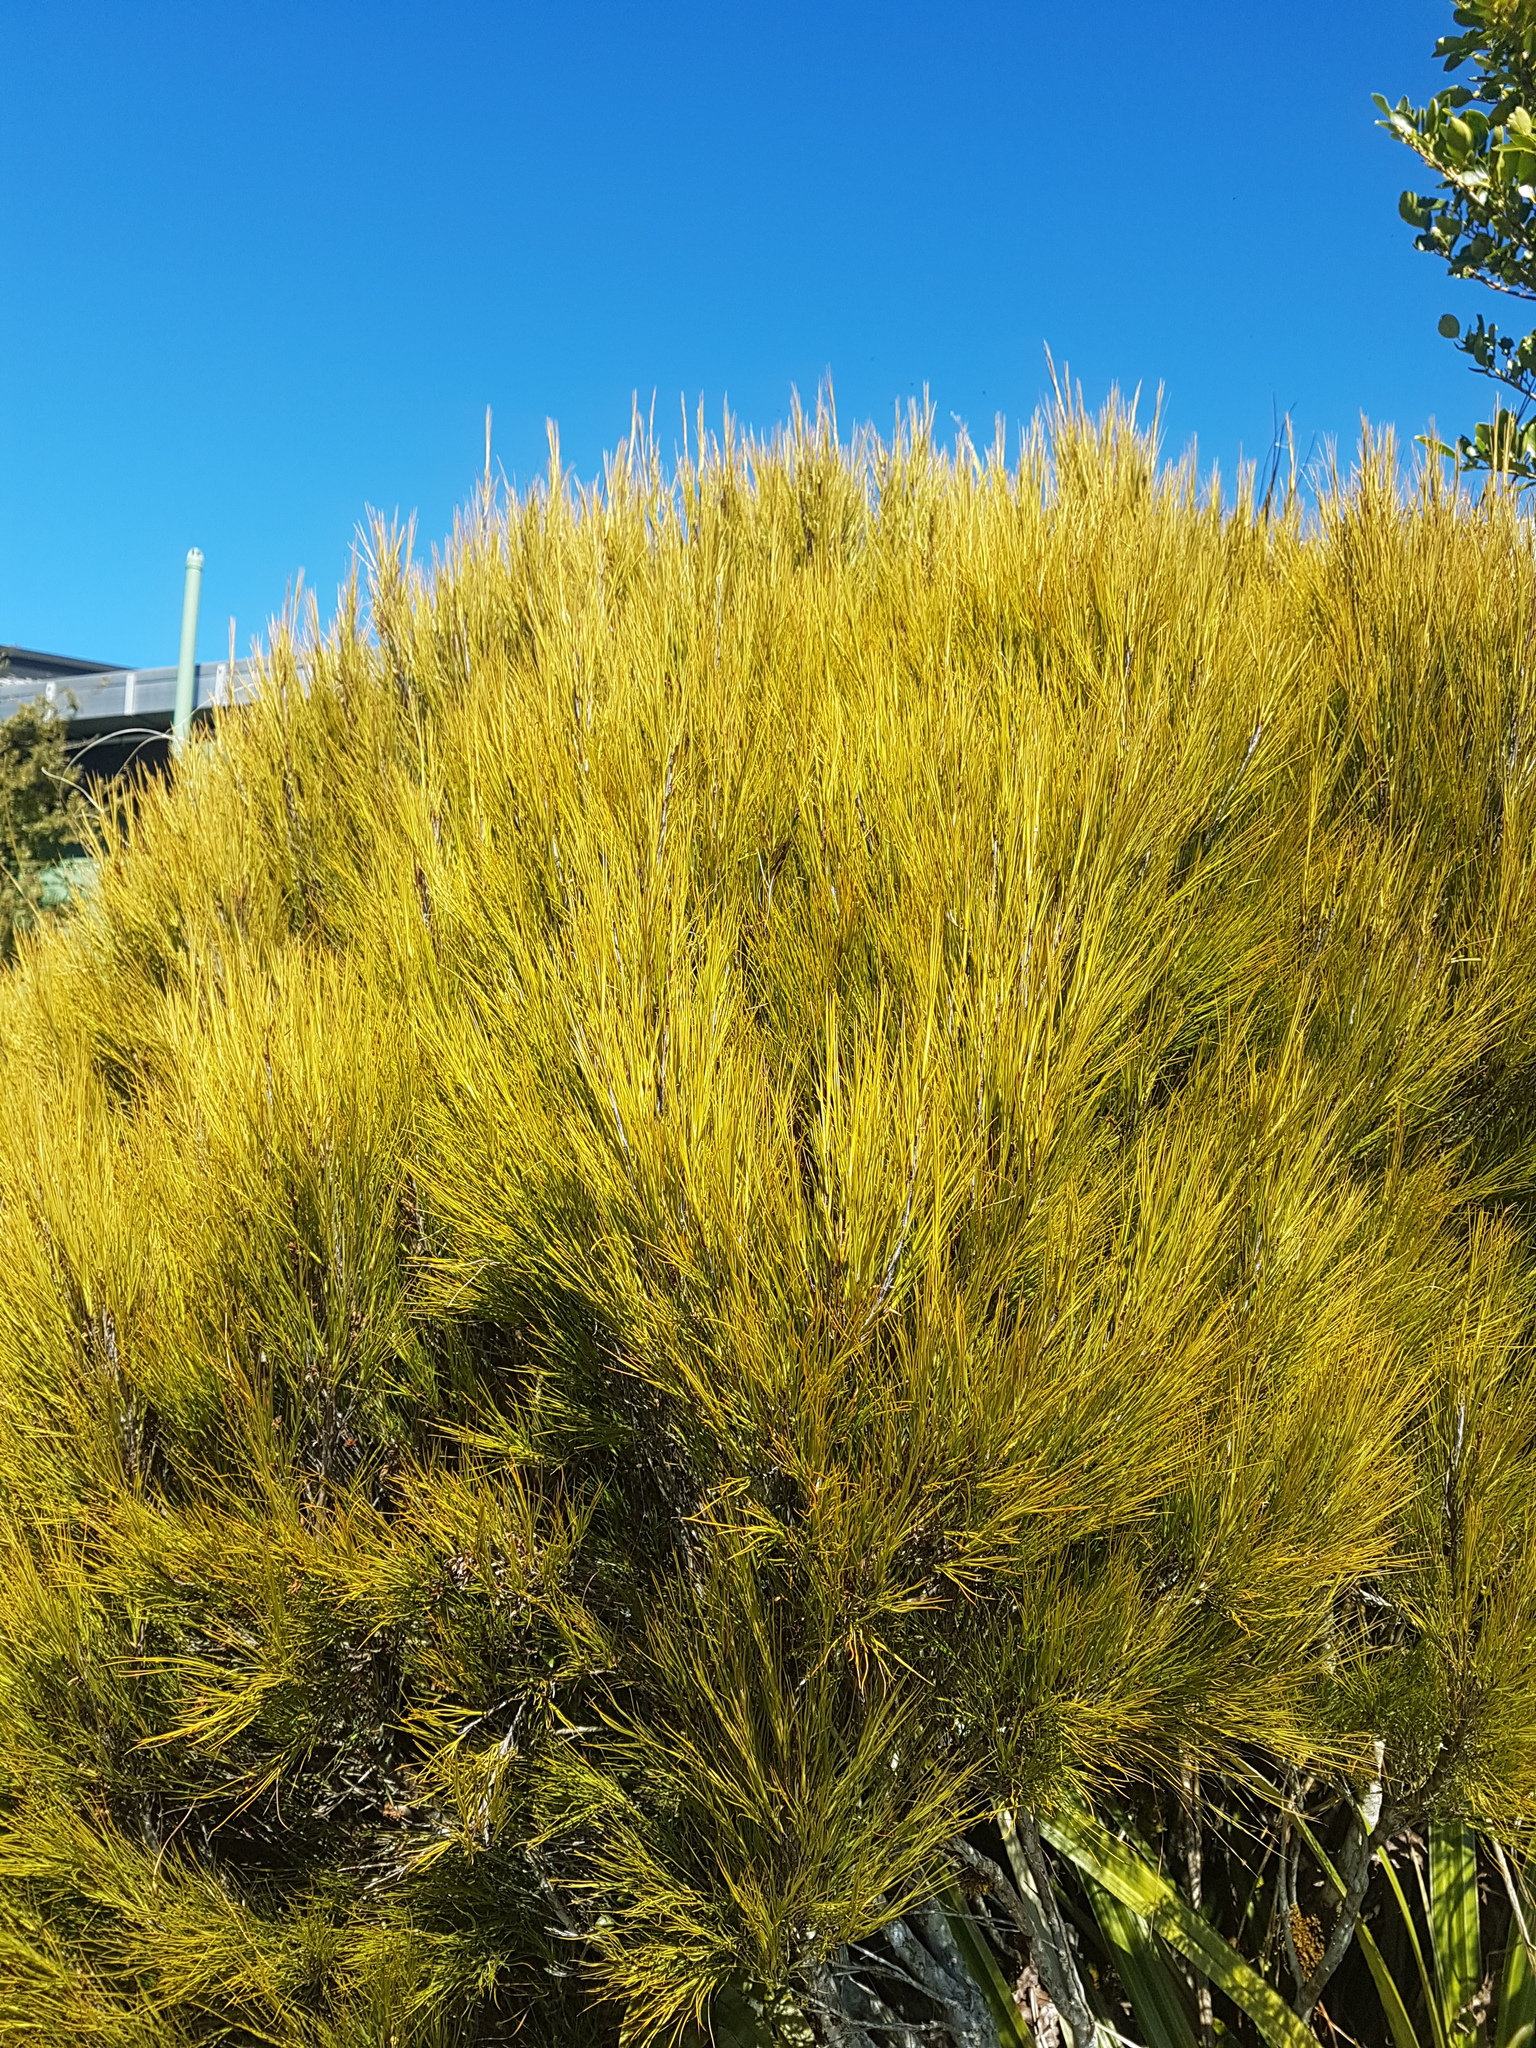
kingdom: Plantae
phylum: Tracheophyta
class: Magnoliopsida
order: Ericales
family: Ericaceae
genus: Dracophyllum
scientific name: Dracophyllum filifolium
